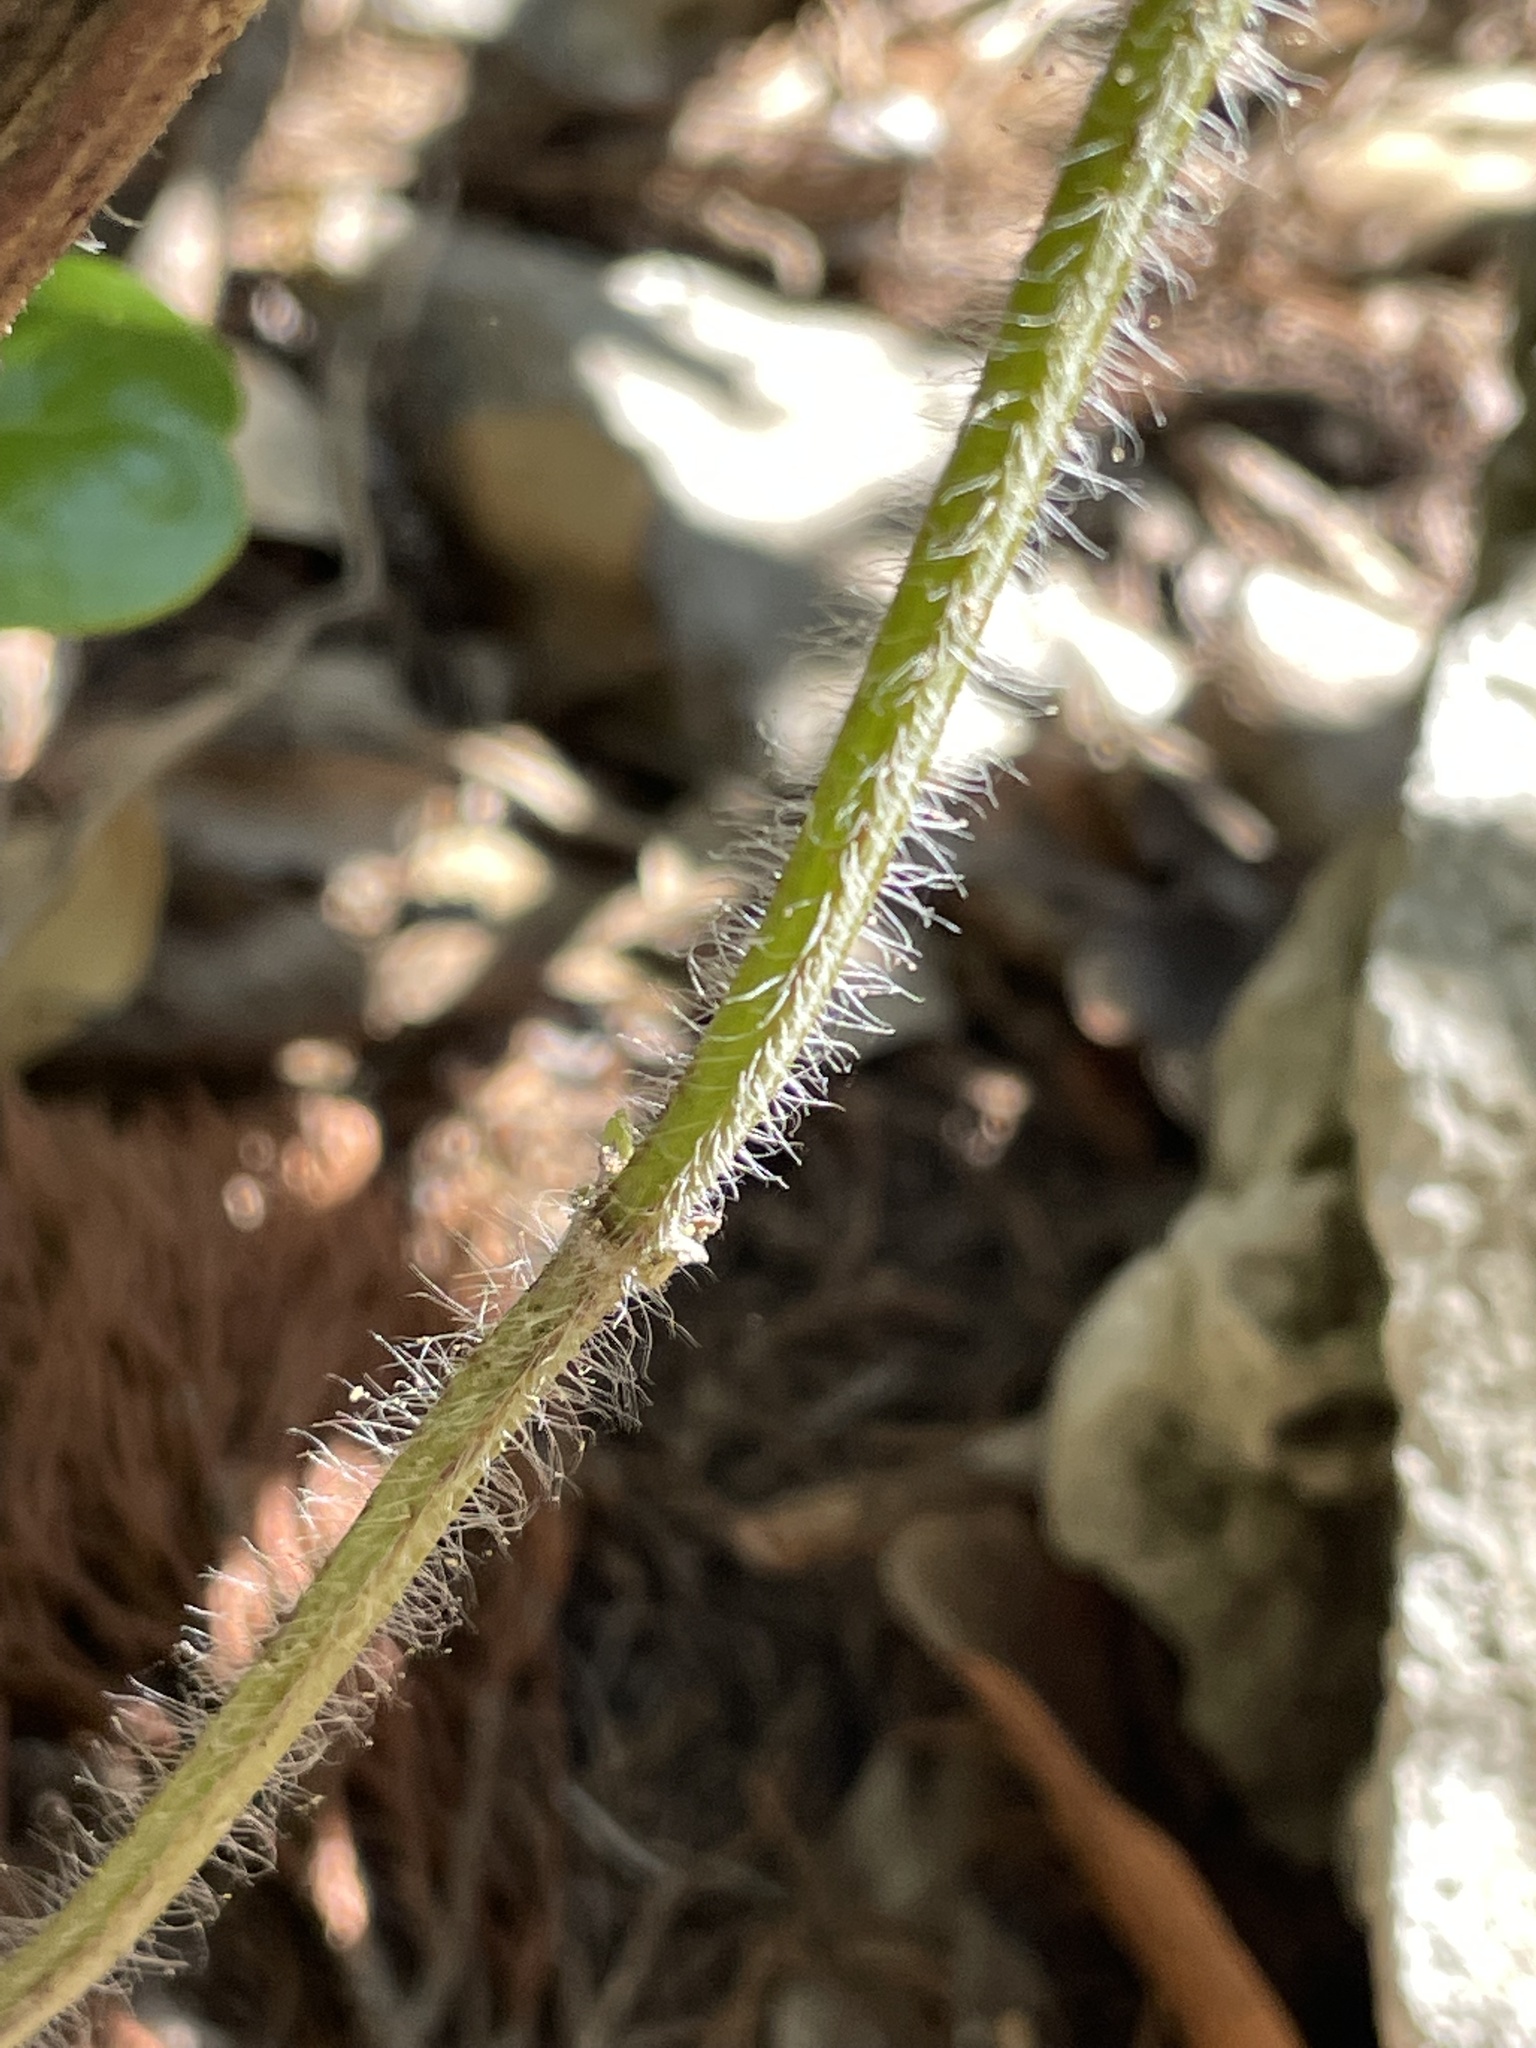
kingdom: Plantae
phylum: Tracheophyta
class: Magnoliopsida
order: Lamiales
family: Lamiaceae
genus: Salvia
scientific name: Salvia coccinea
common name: Blood sage
